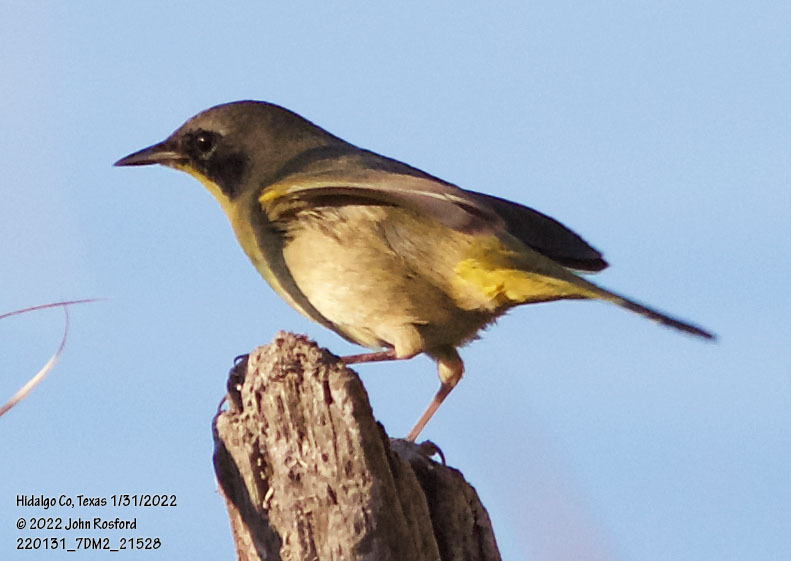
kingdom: Animalia
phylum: Chordata
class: Aves
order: Passeriformes
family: Parulidae
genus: Geothlypis
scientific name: Geothlypis trichas
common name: Common yellowthroat
